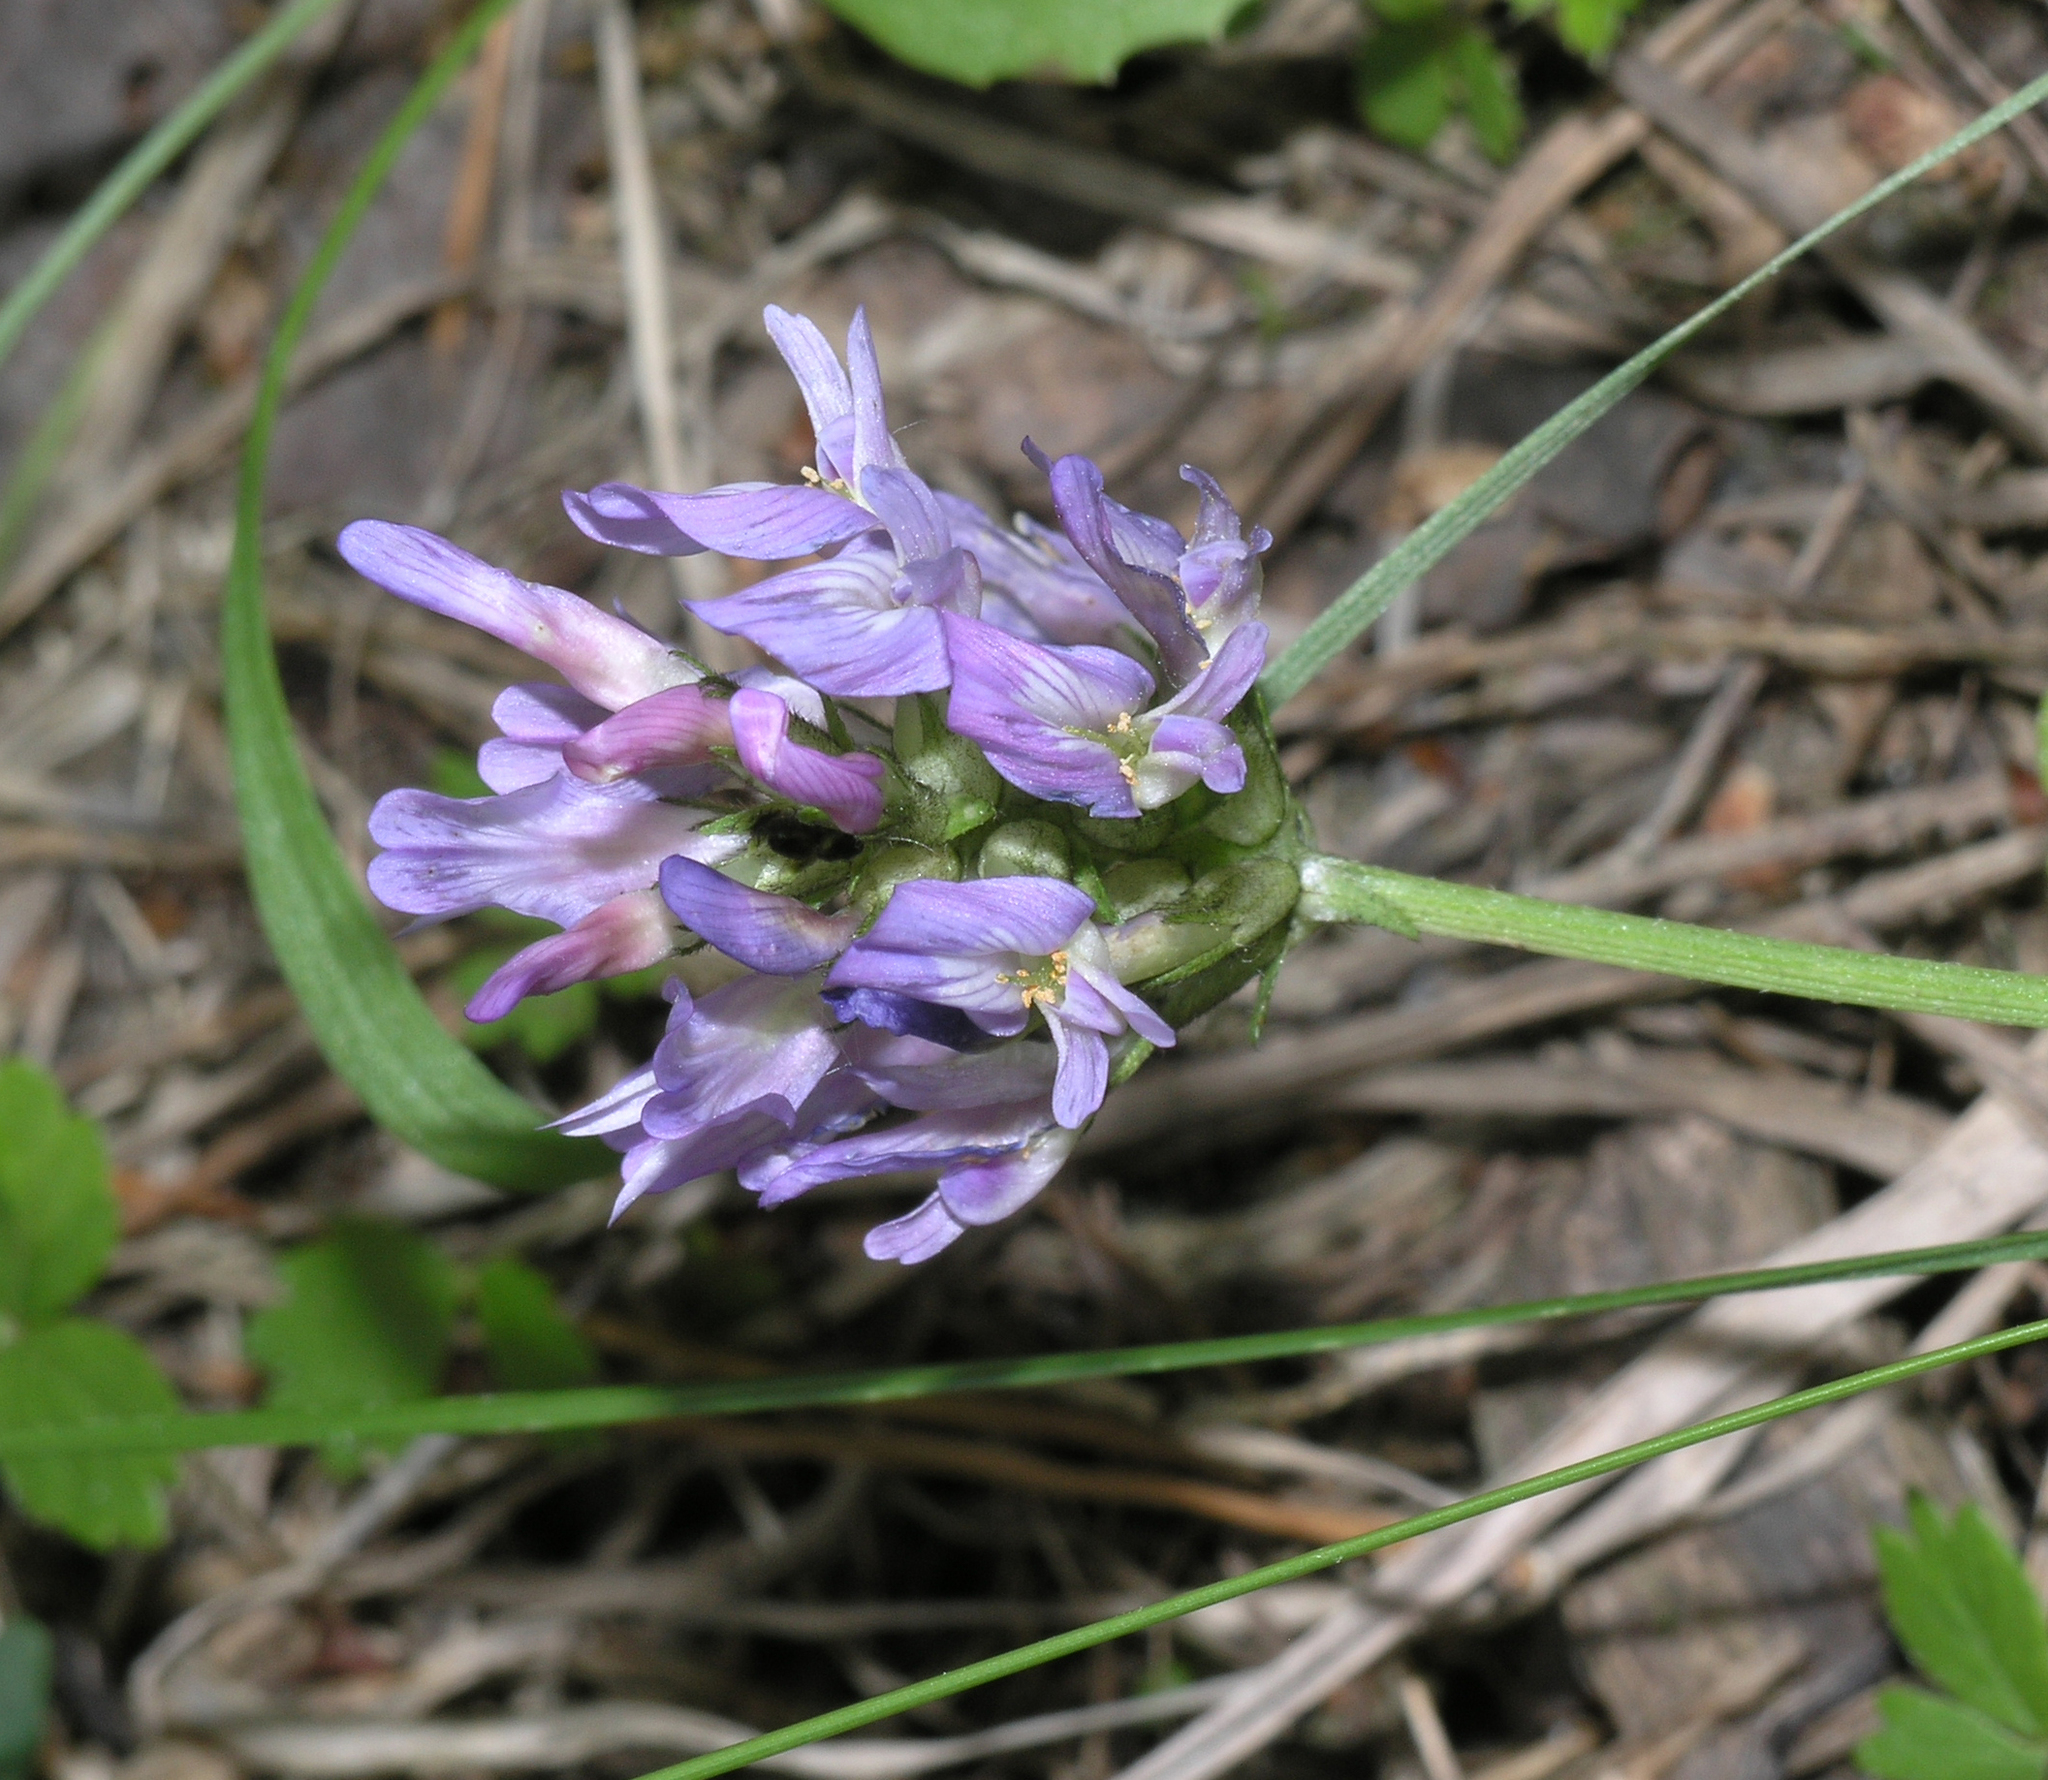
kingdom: Plantae
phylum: Tracheophyta
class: Magnoliopsida
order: Fabales
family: Fabaceae
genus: Astragalus
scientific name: Astragalus danicus
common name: Purple milk-vetch
